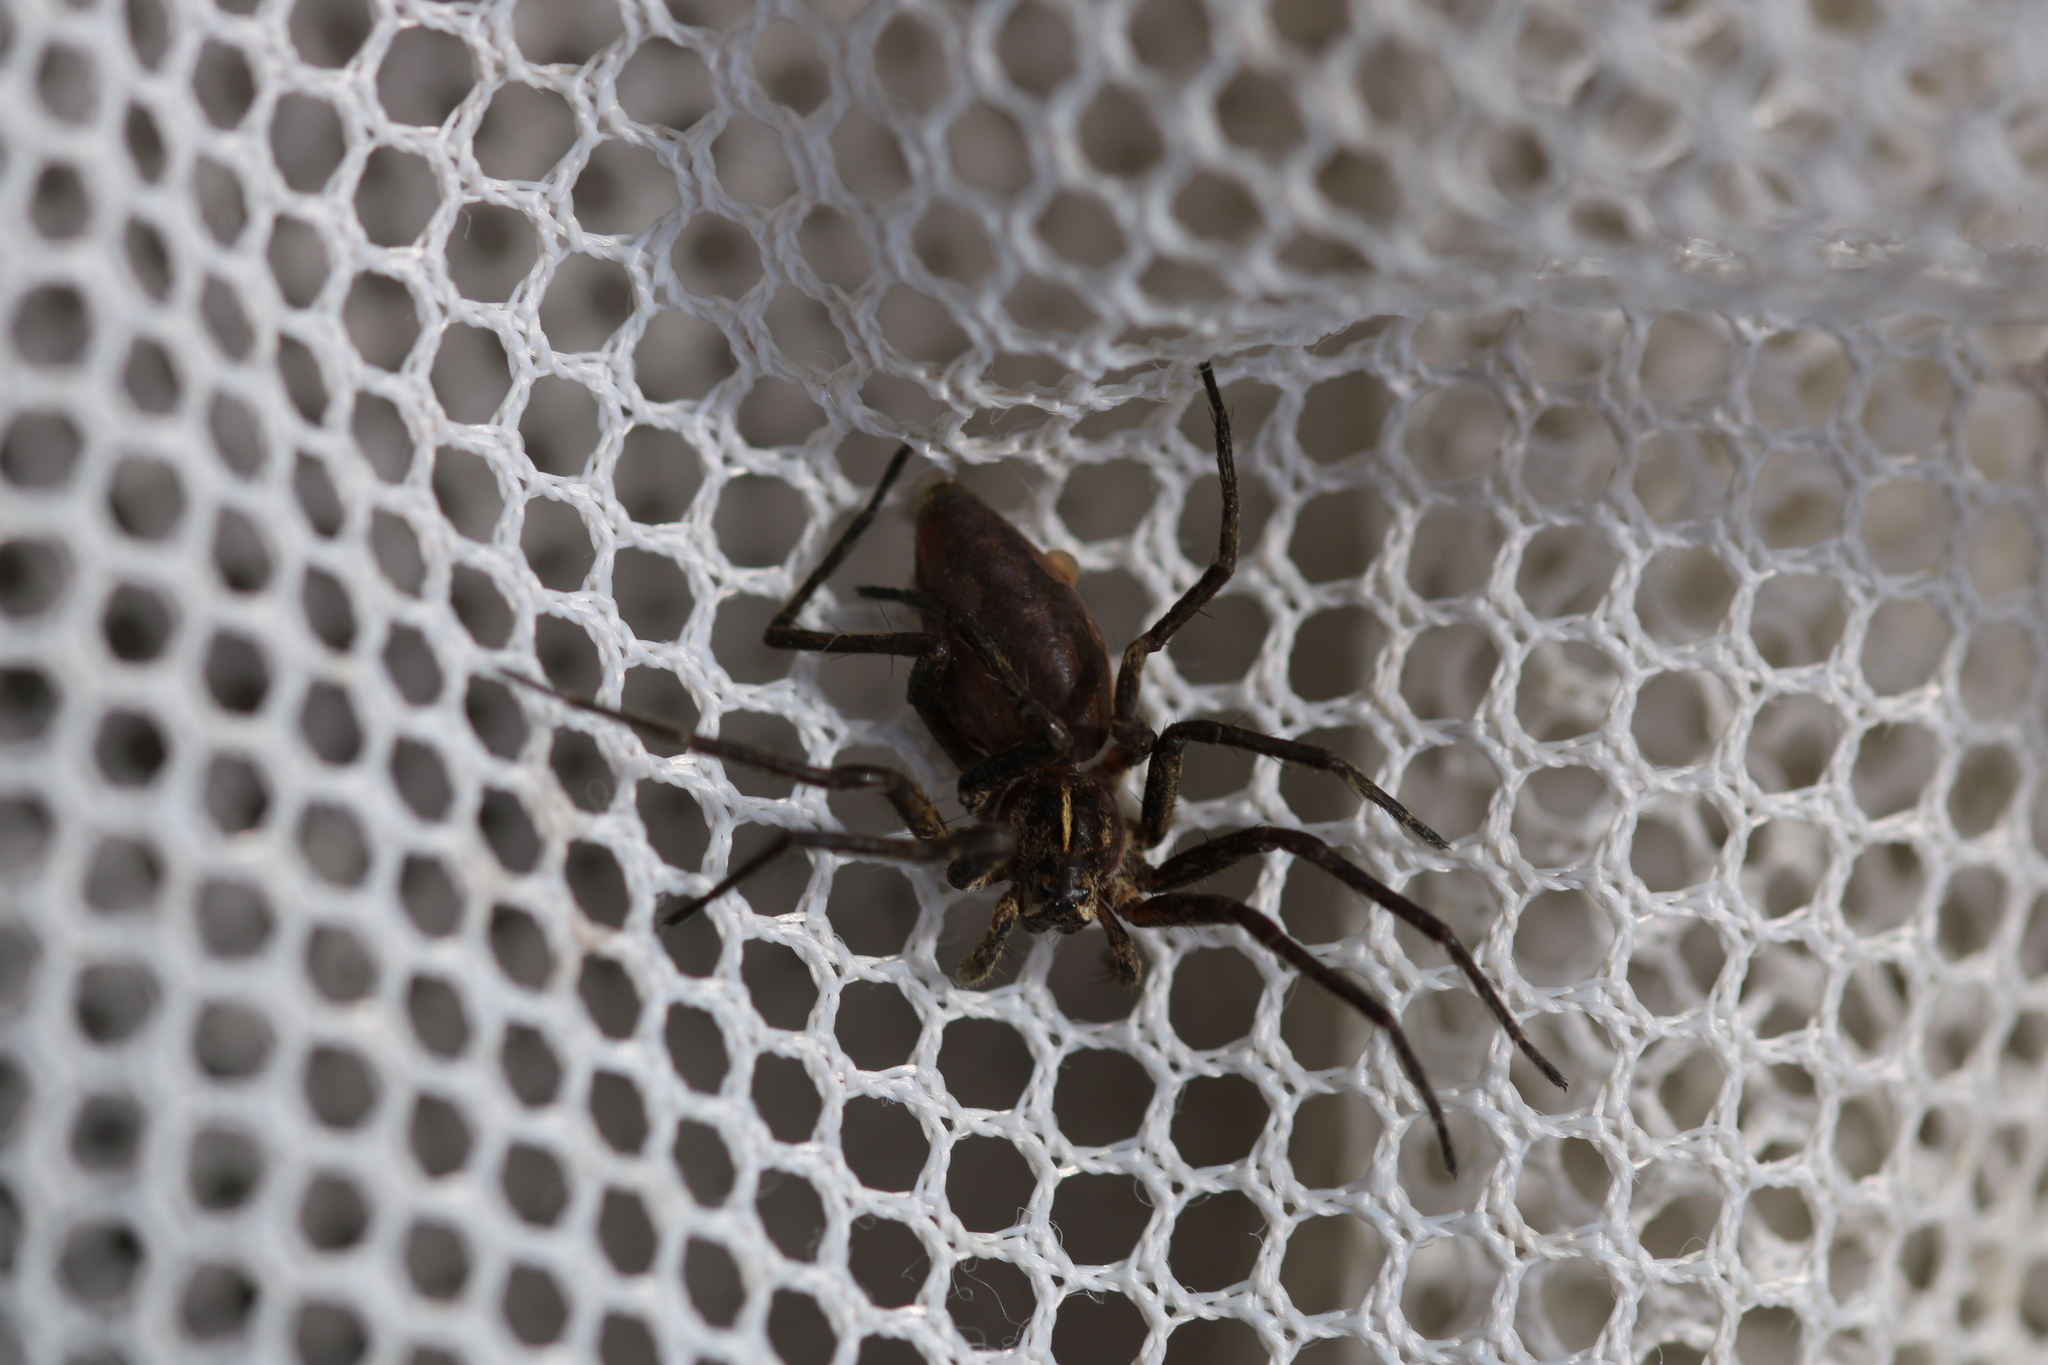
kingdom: Animalia
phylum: Arthropoda
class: Arachnida
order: Araneae
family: Pisauridae
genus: Pisaura
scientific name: Pisaura mirabilis
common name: Tent spider
